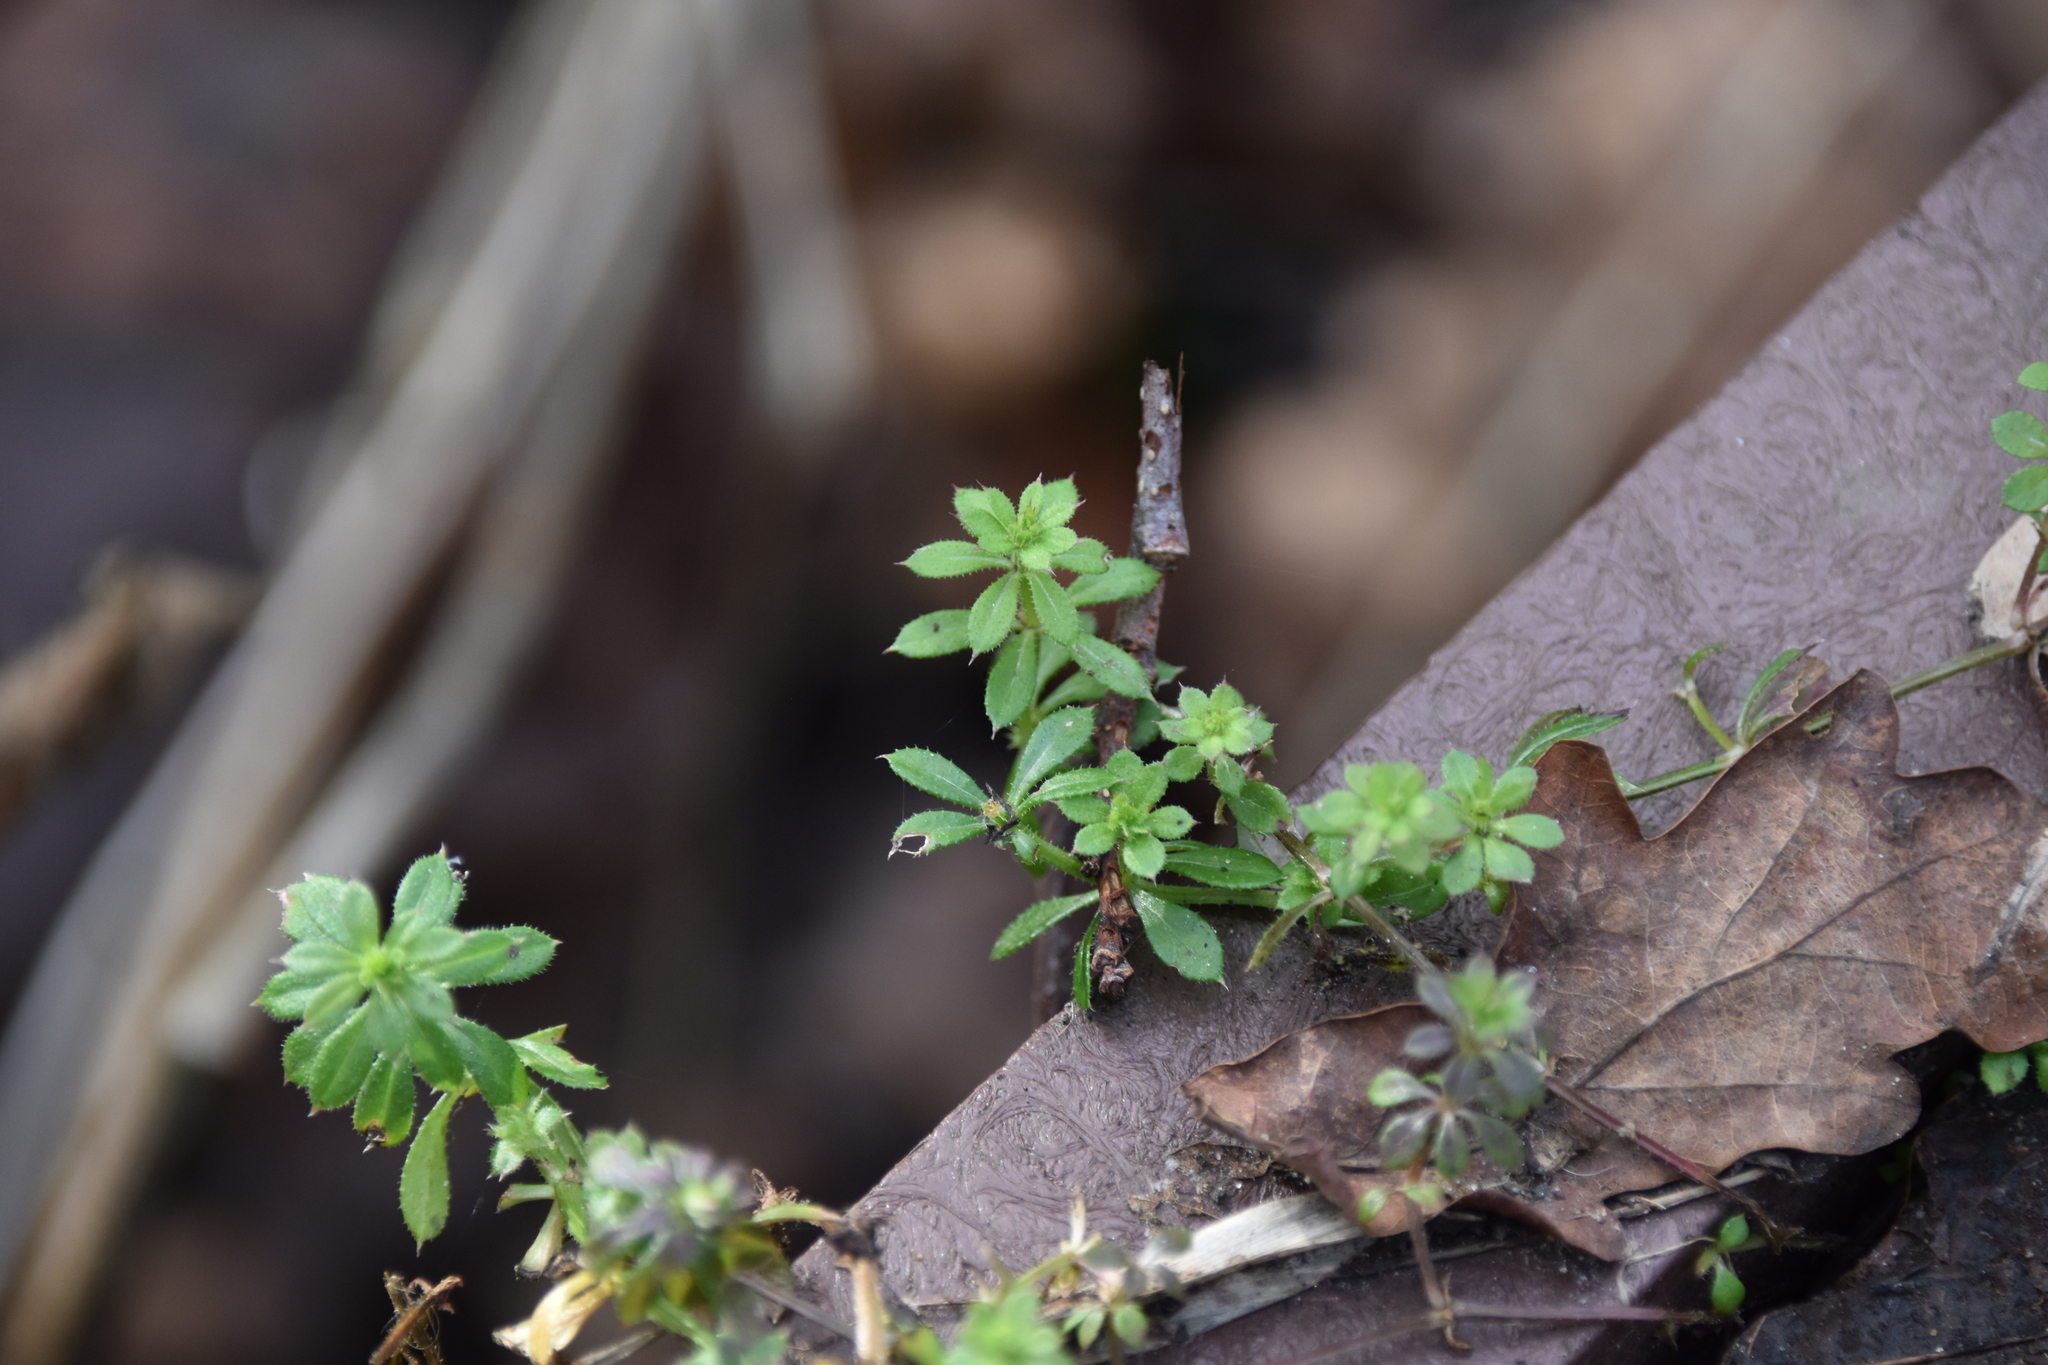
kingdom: Plantae
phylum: Tracheophyta
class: Magnoliopsida
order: Gentianales
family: Rubiaceae
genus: Galium
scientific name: Galium aparine
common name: Cleavers
